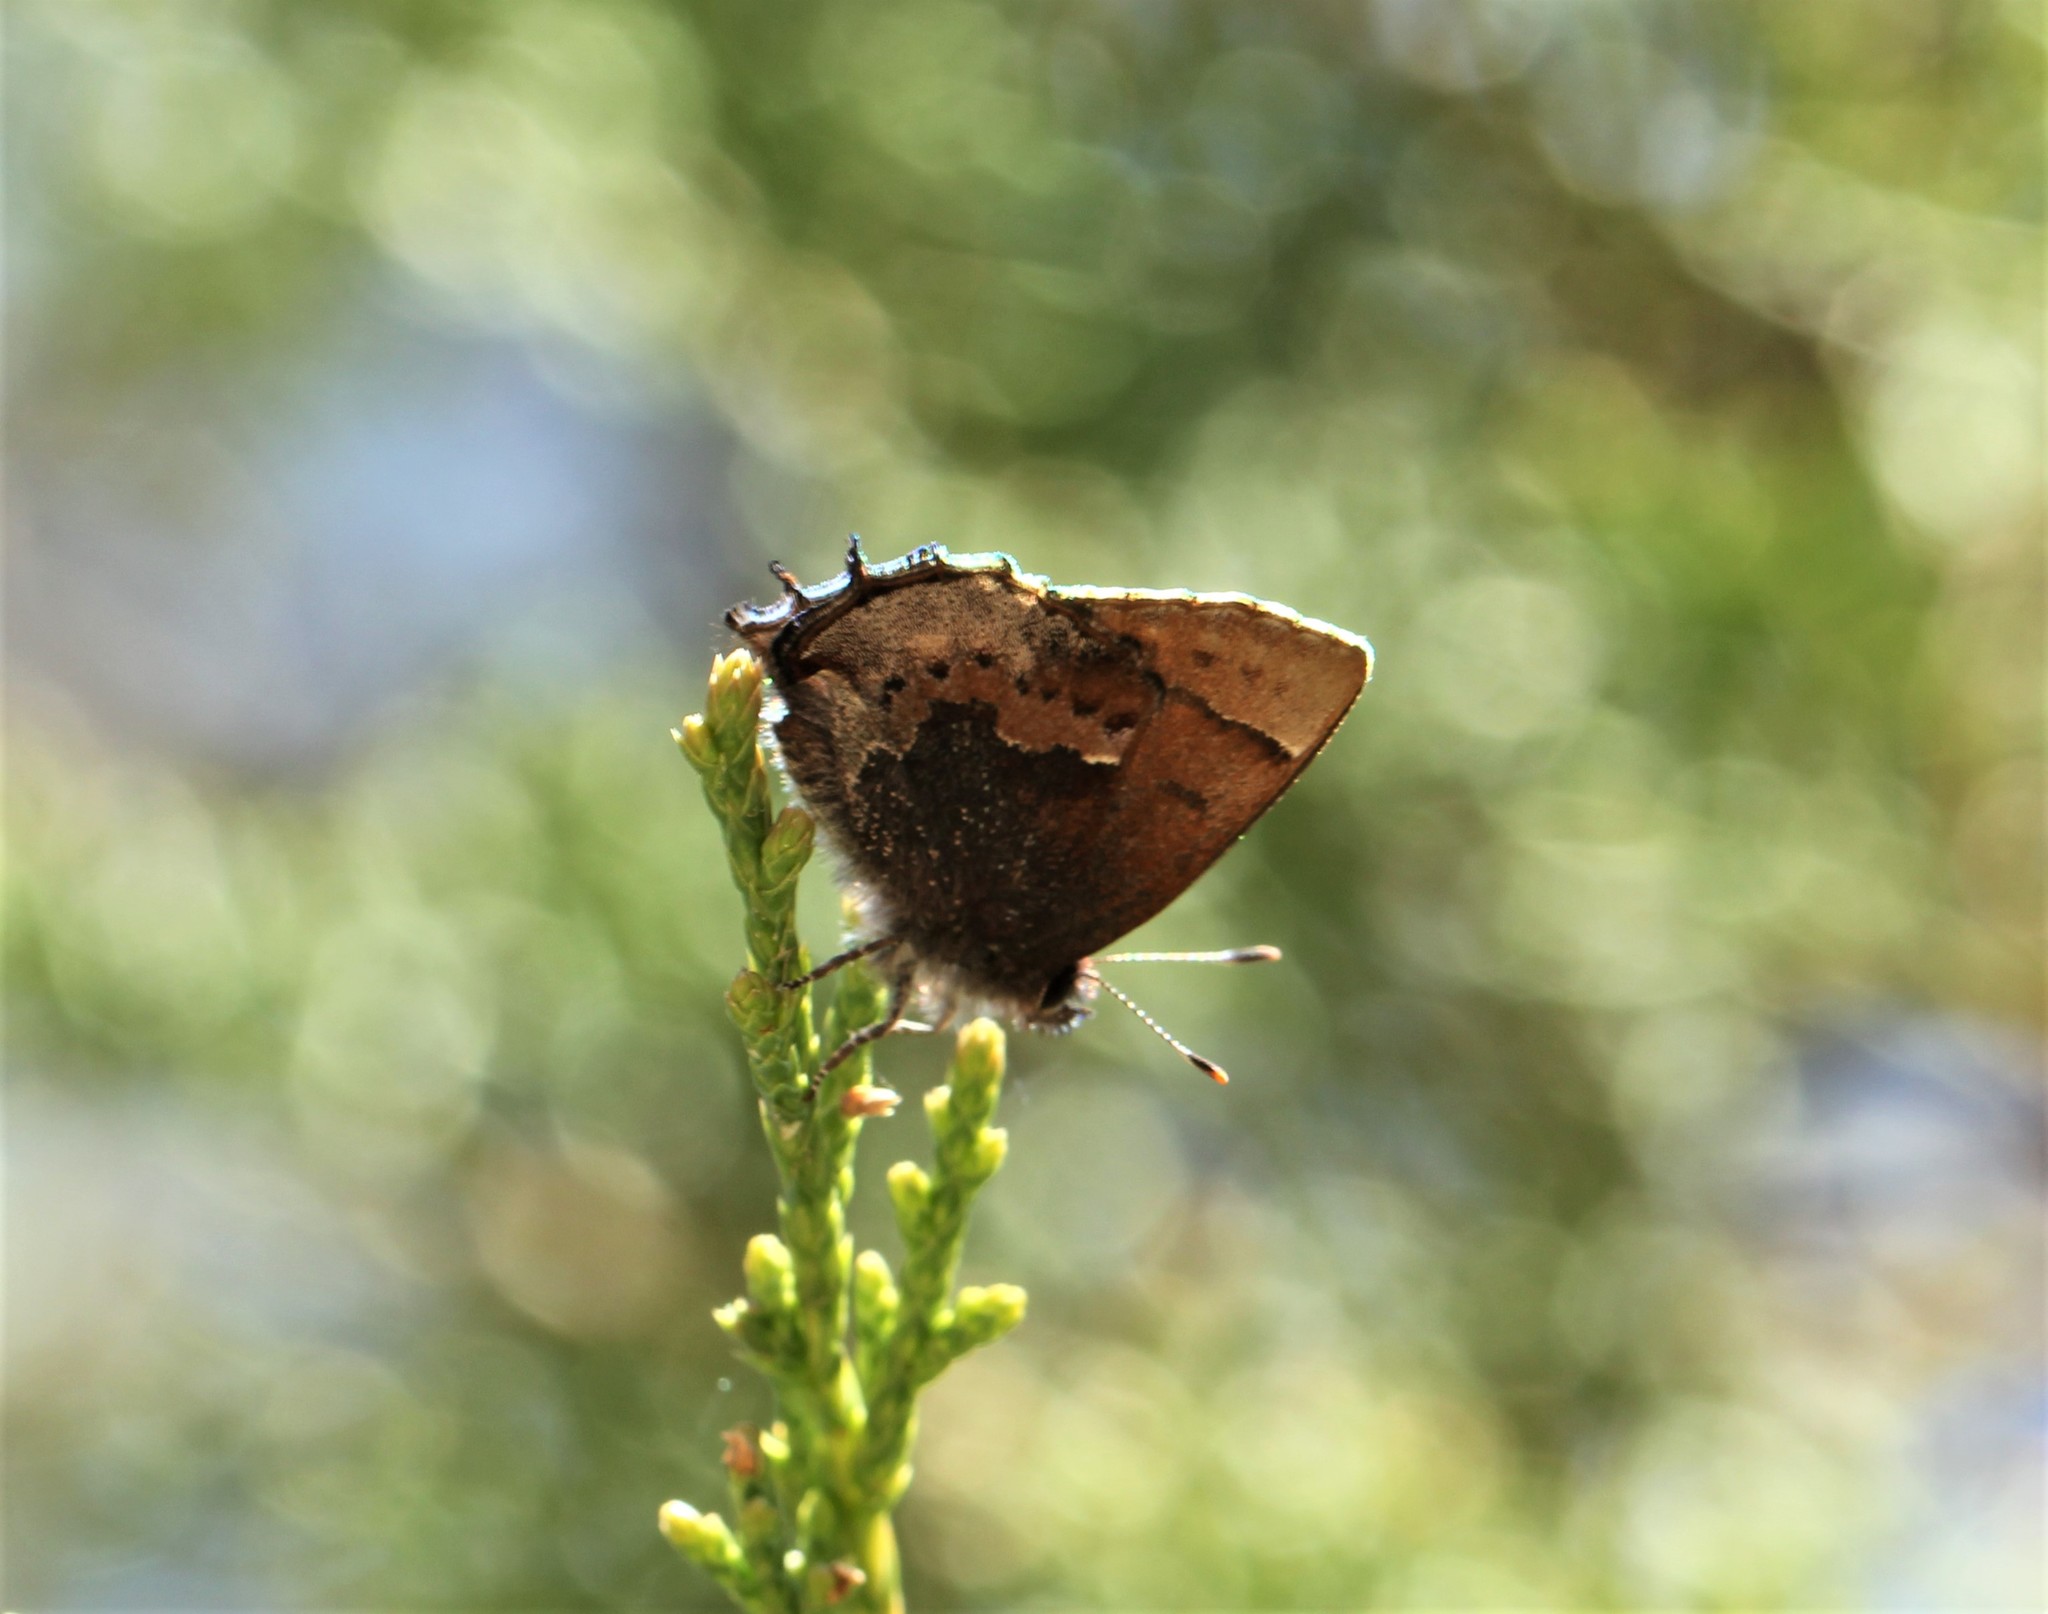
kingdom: Animalia
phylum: Arthropoda
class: Insecta
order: Lepidoptera
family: Lycaenidae
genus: Incisalia
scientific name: Incisalia henrici
